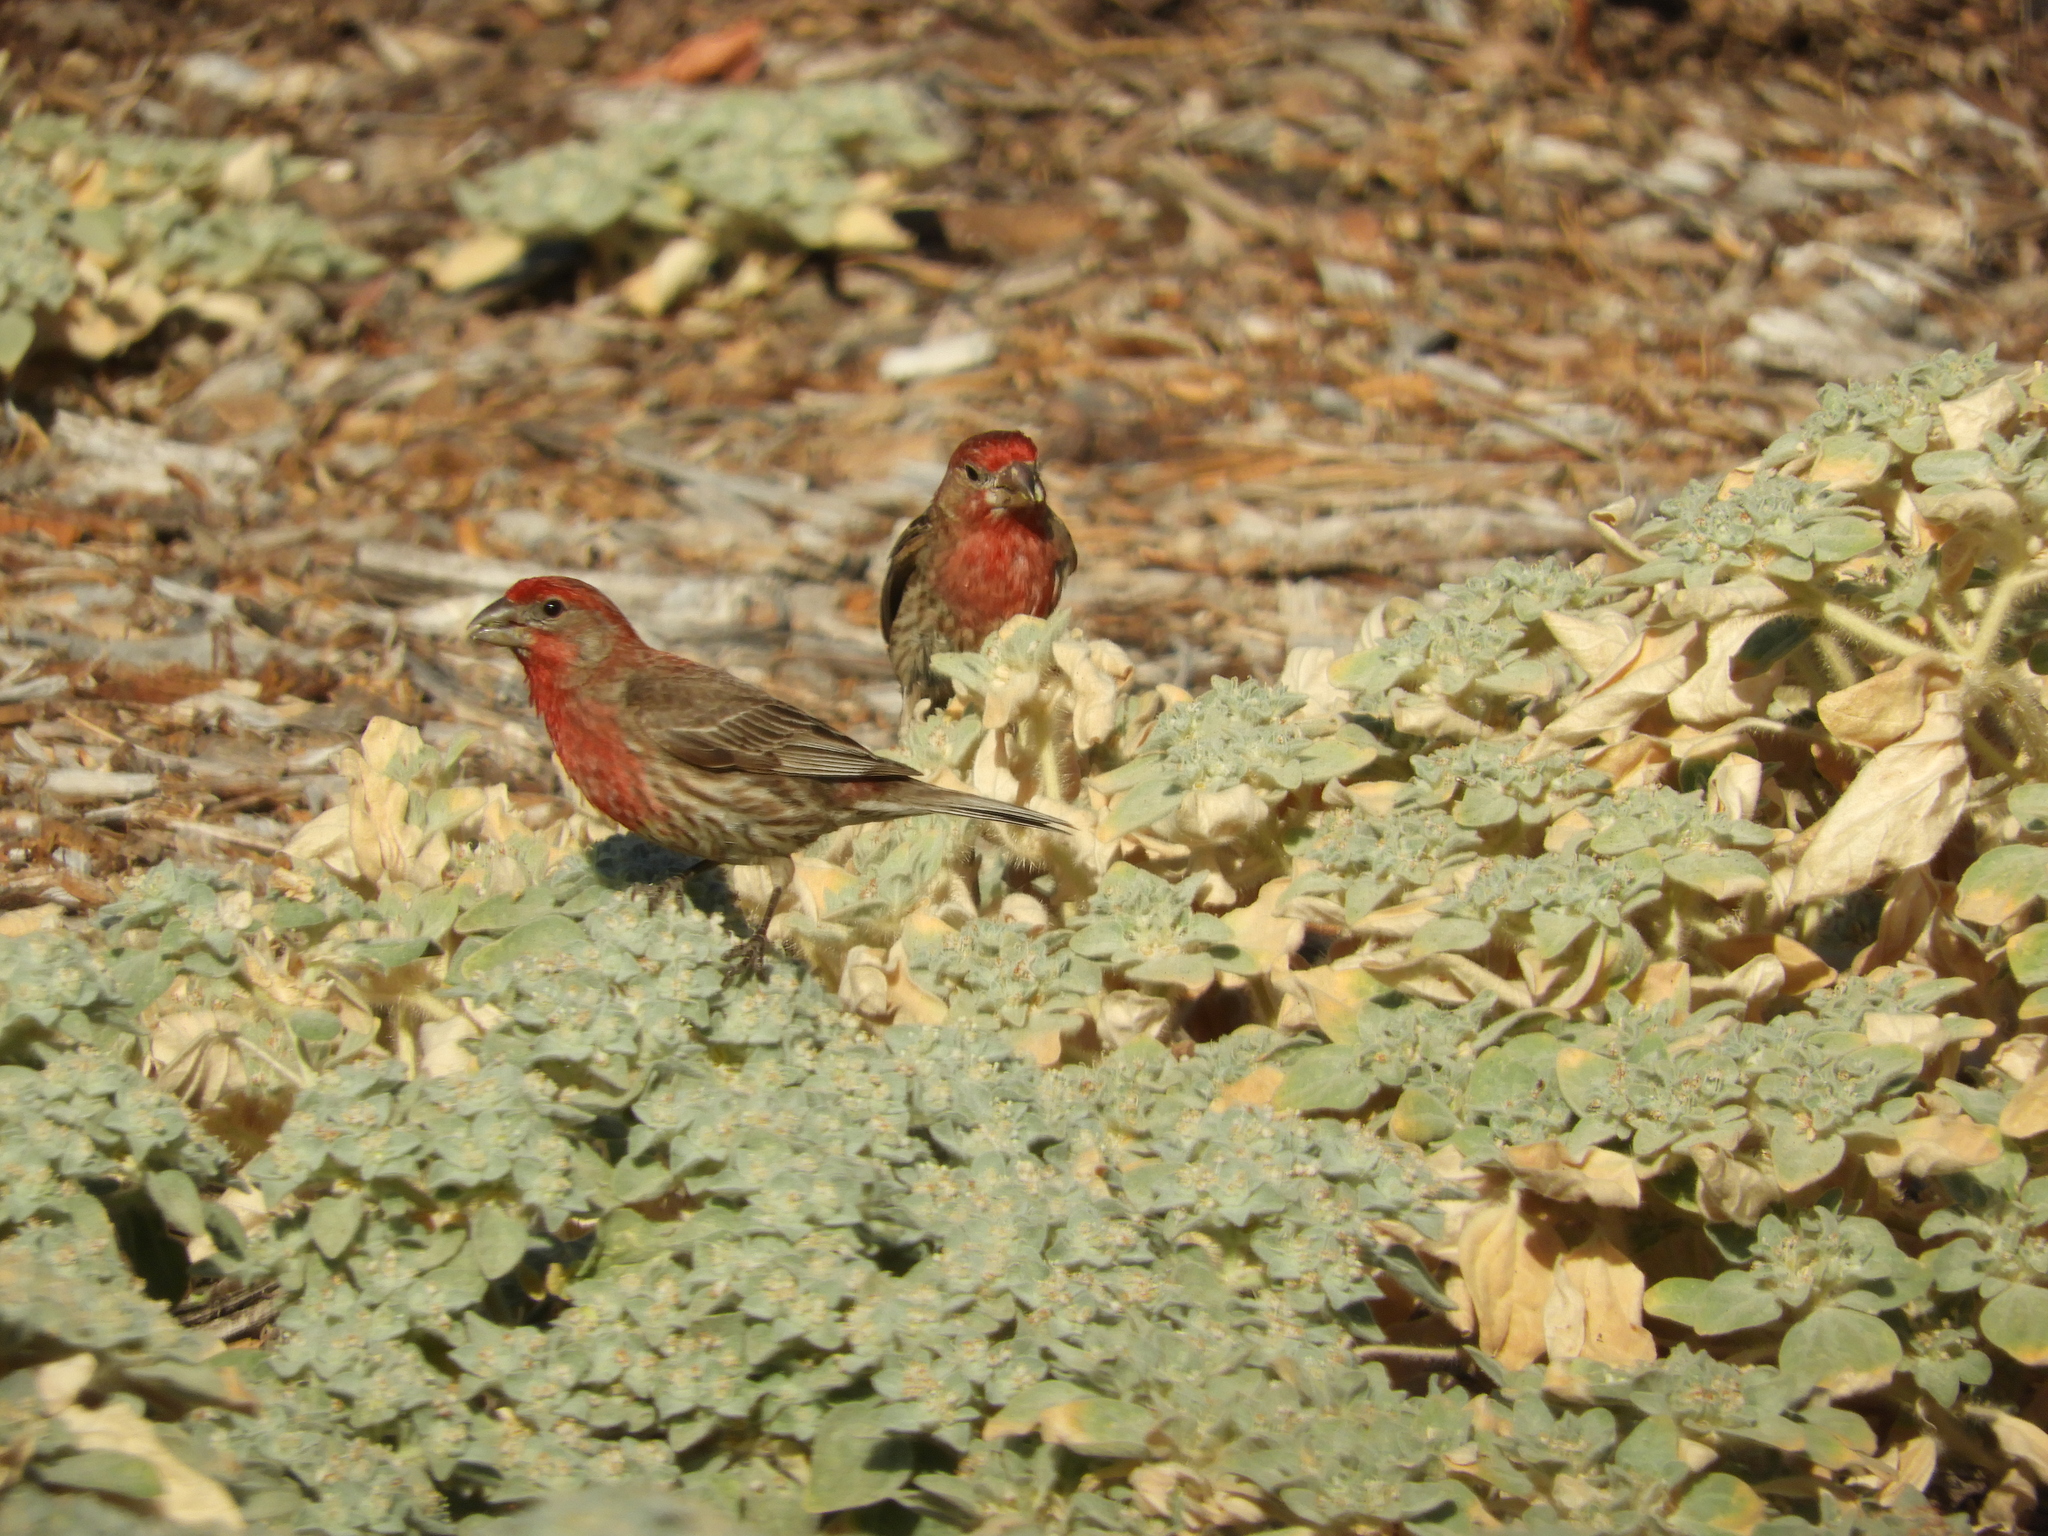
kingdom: Animalia
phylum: Chordata
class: Aves
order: Passeriformes
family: Fringillidae
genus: Haemorhous
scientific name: Haemorhous mexicanus
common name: House finch
